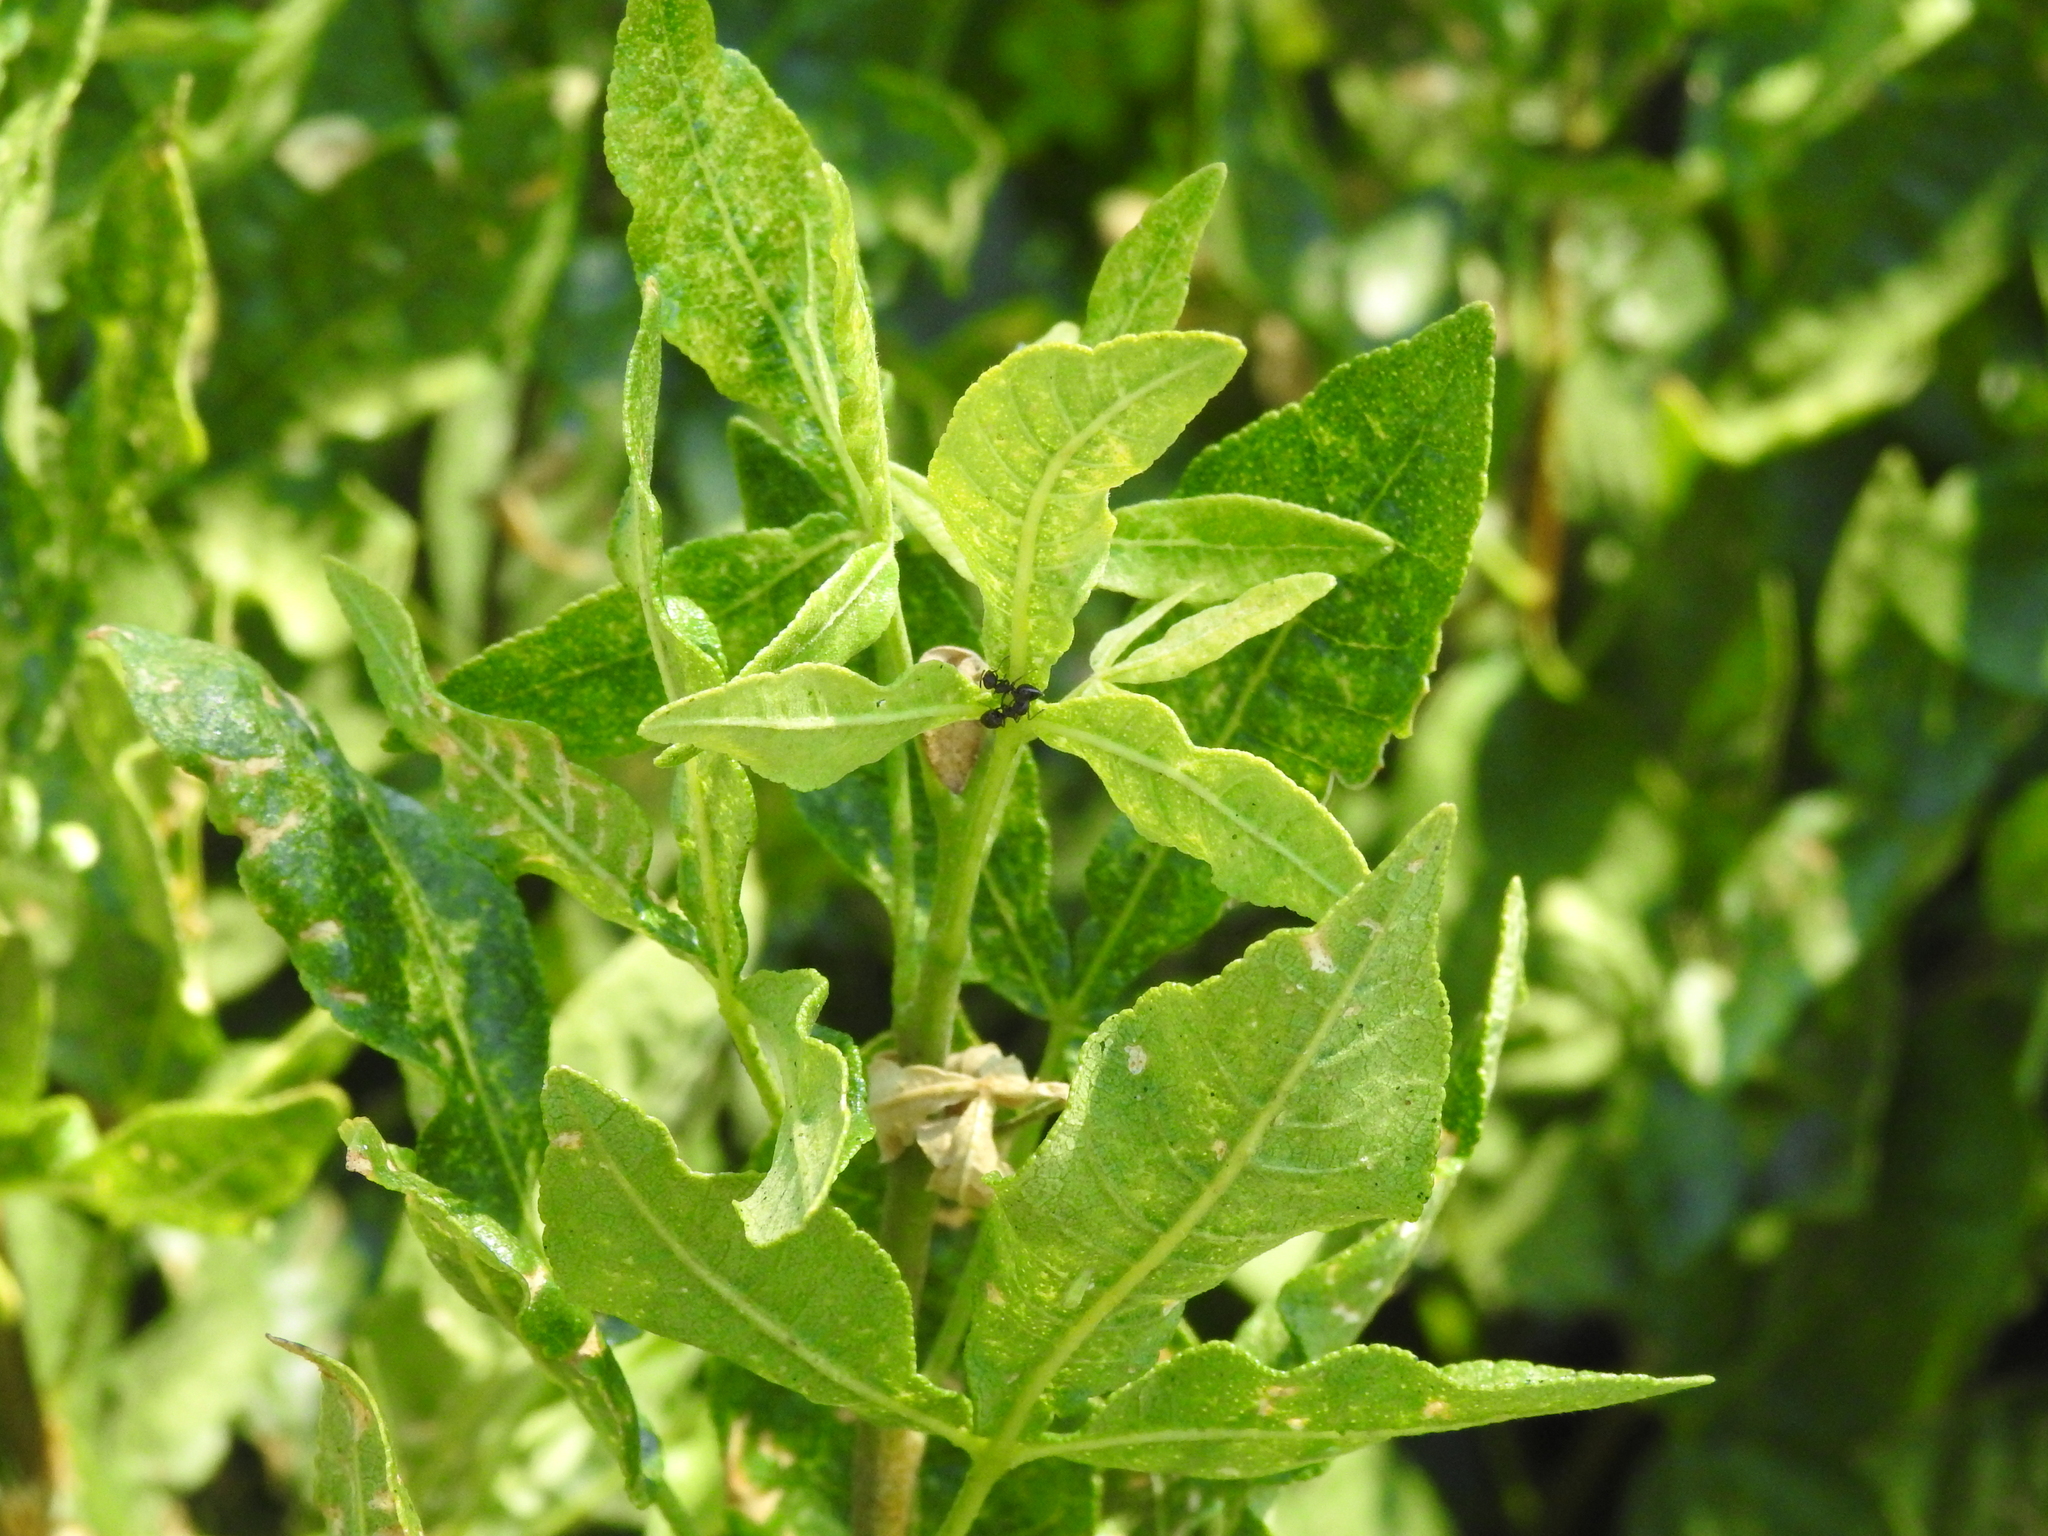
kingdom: Plantae
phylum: Tracheophyta
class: Magnoliopsida
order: Sapindales
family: Rutaceae
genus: Ptelea
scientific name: Ptelea crenulata
